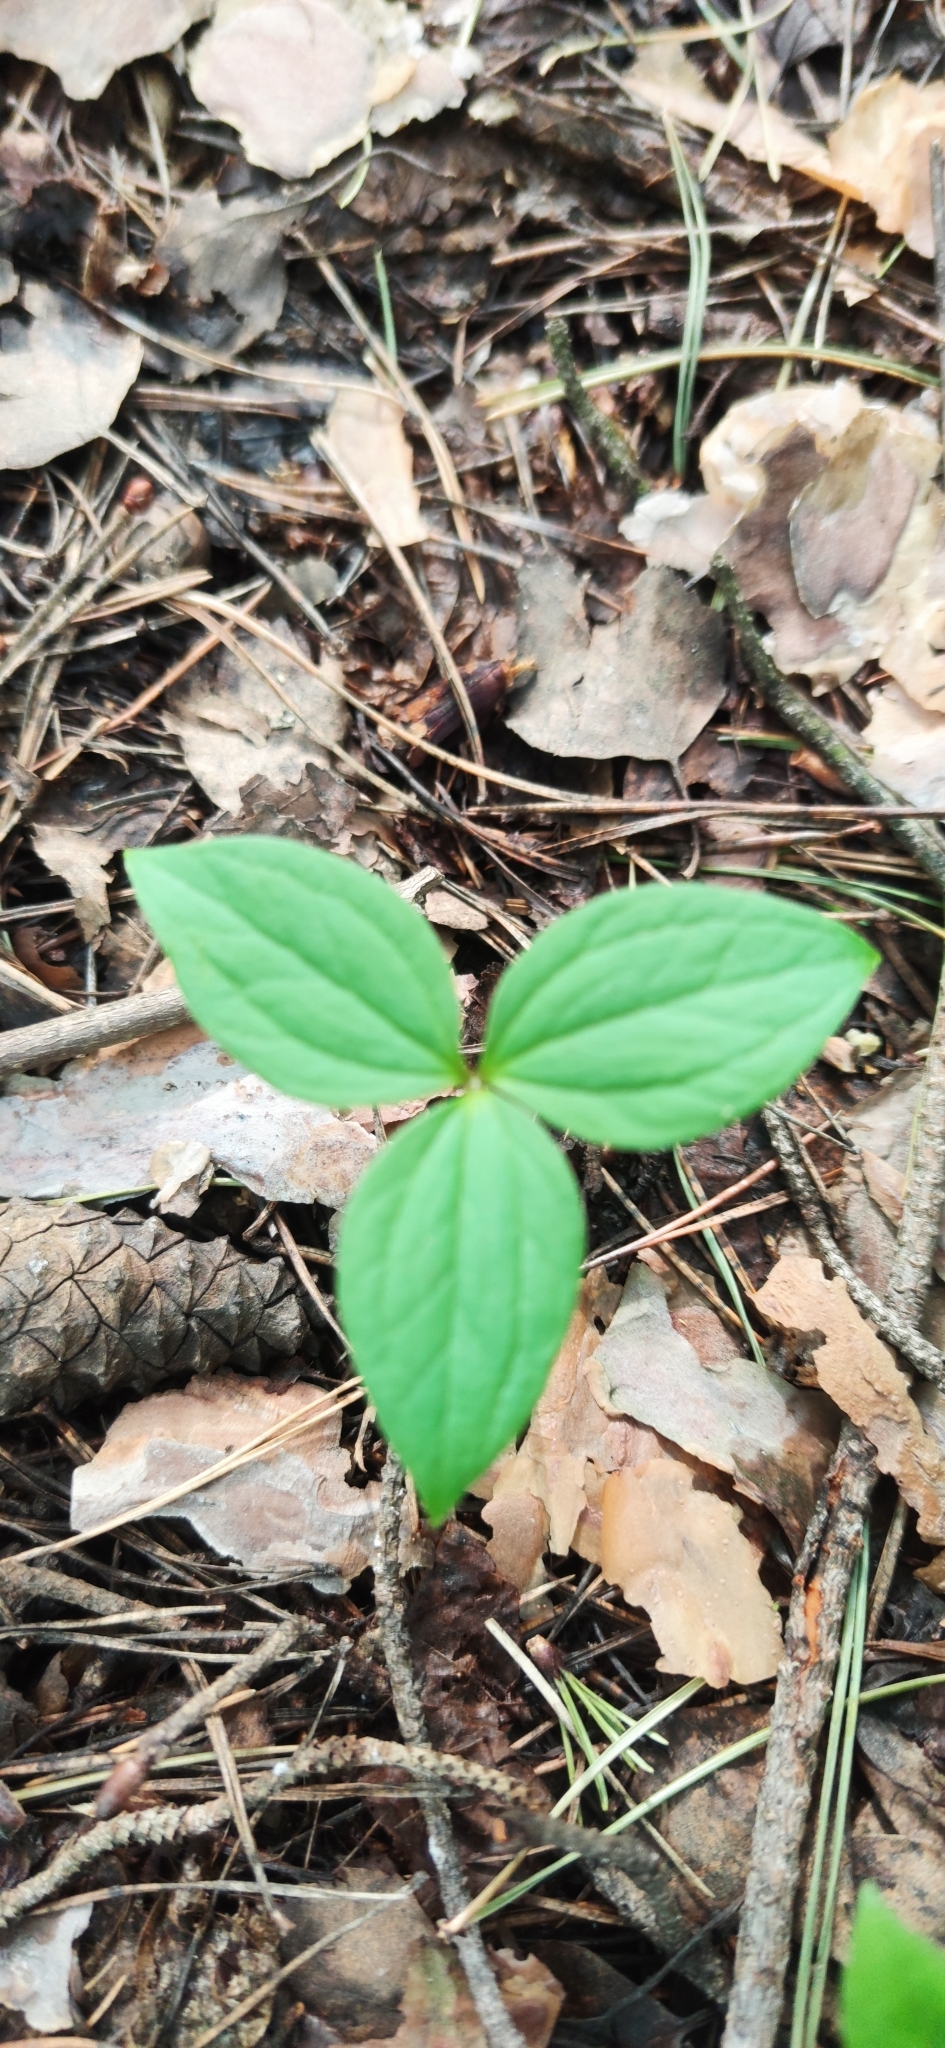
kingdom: Plantae
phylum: Tracheophyta
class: Liliopsida
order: Liliales
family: Melanthiaceae
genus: Paris
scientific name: Paris quadrifolia
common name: Herb-paris
